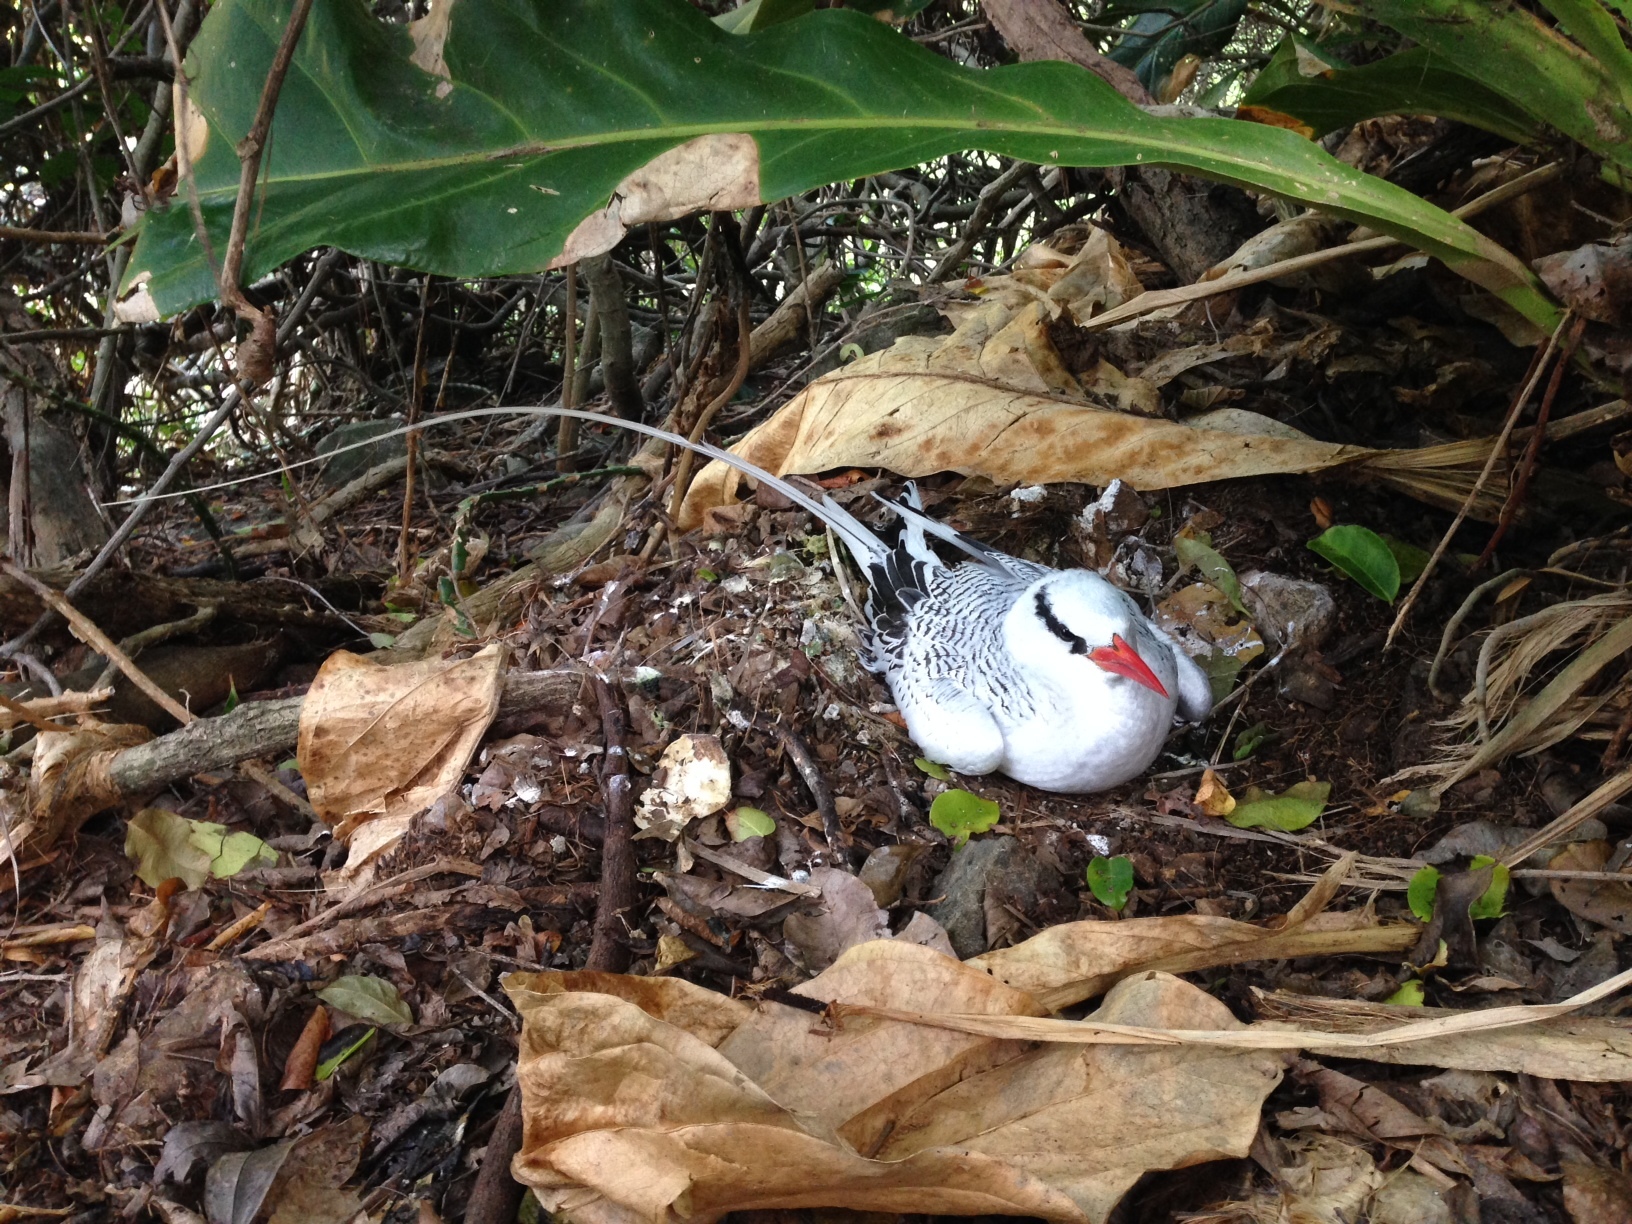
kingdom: Animalia
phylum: Chordata
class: Aves
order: Phaethontiformes
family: Phaethontidae
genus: Phaethon
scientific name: Phaethon aethereus
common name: Red-billed tropicbird
